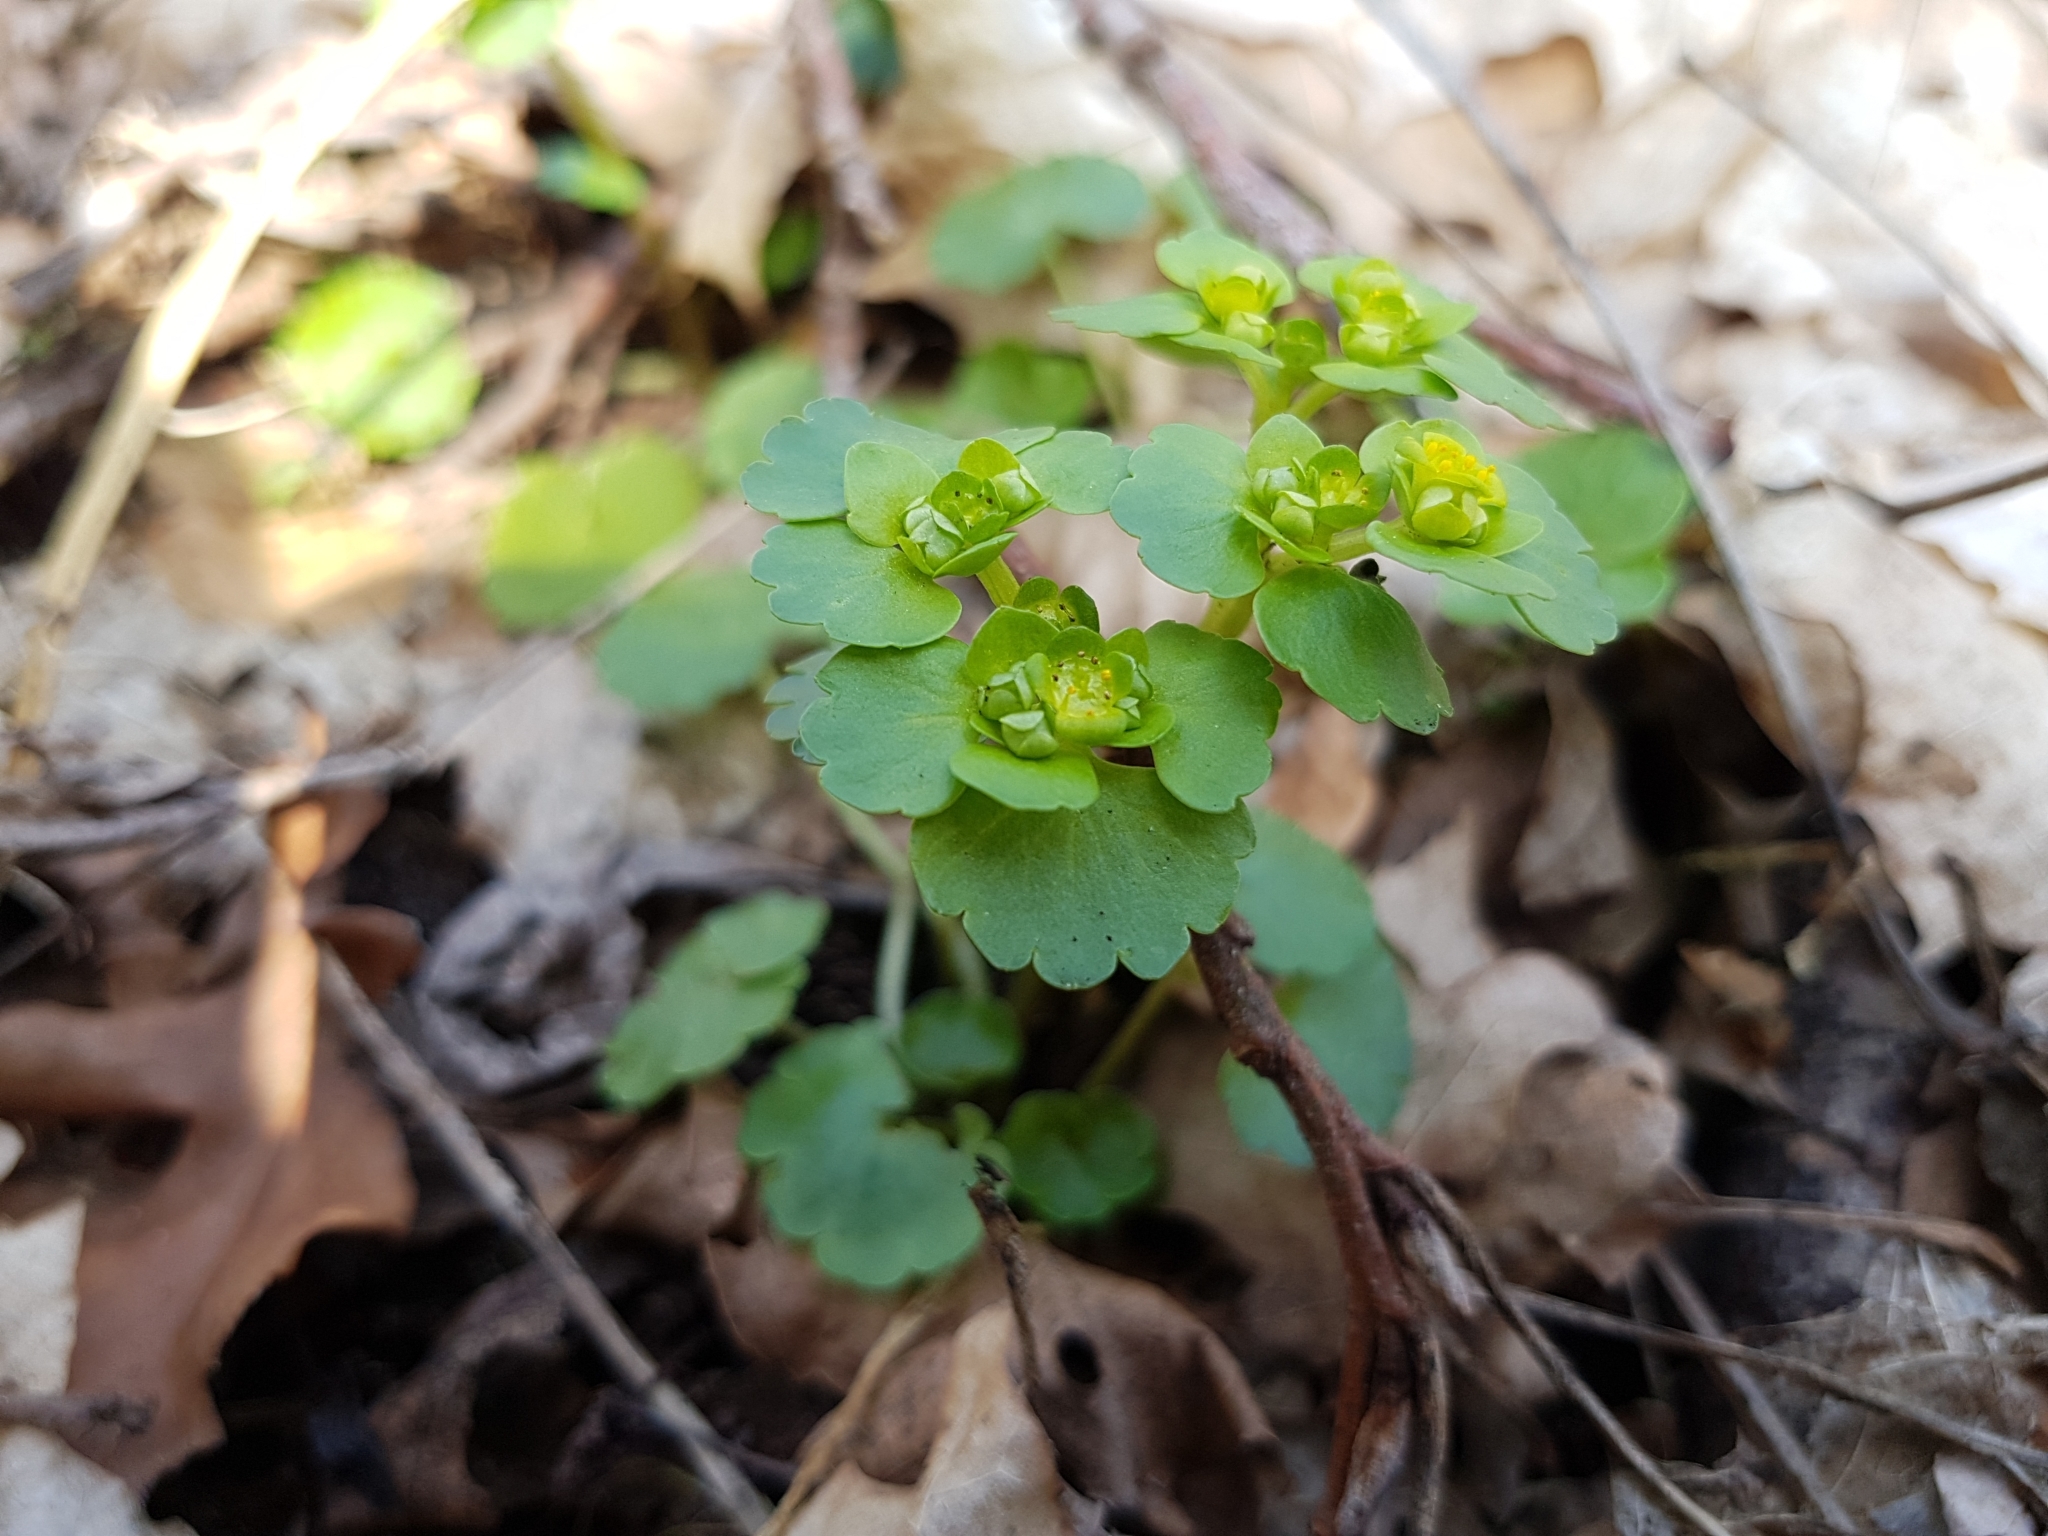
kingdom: Plantae
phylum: Tracheophyta
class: Magnoliopsida
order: Saxifragales
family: Saxifragaceae
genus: Chrysosplenium
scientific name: Chrysosplenium alternifolium
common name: Alternate-leaved golden-saxifrage
